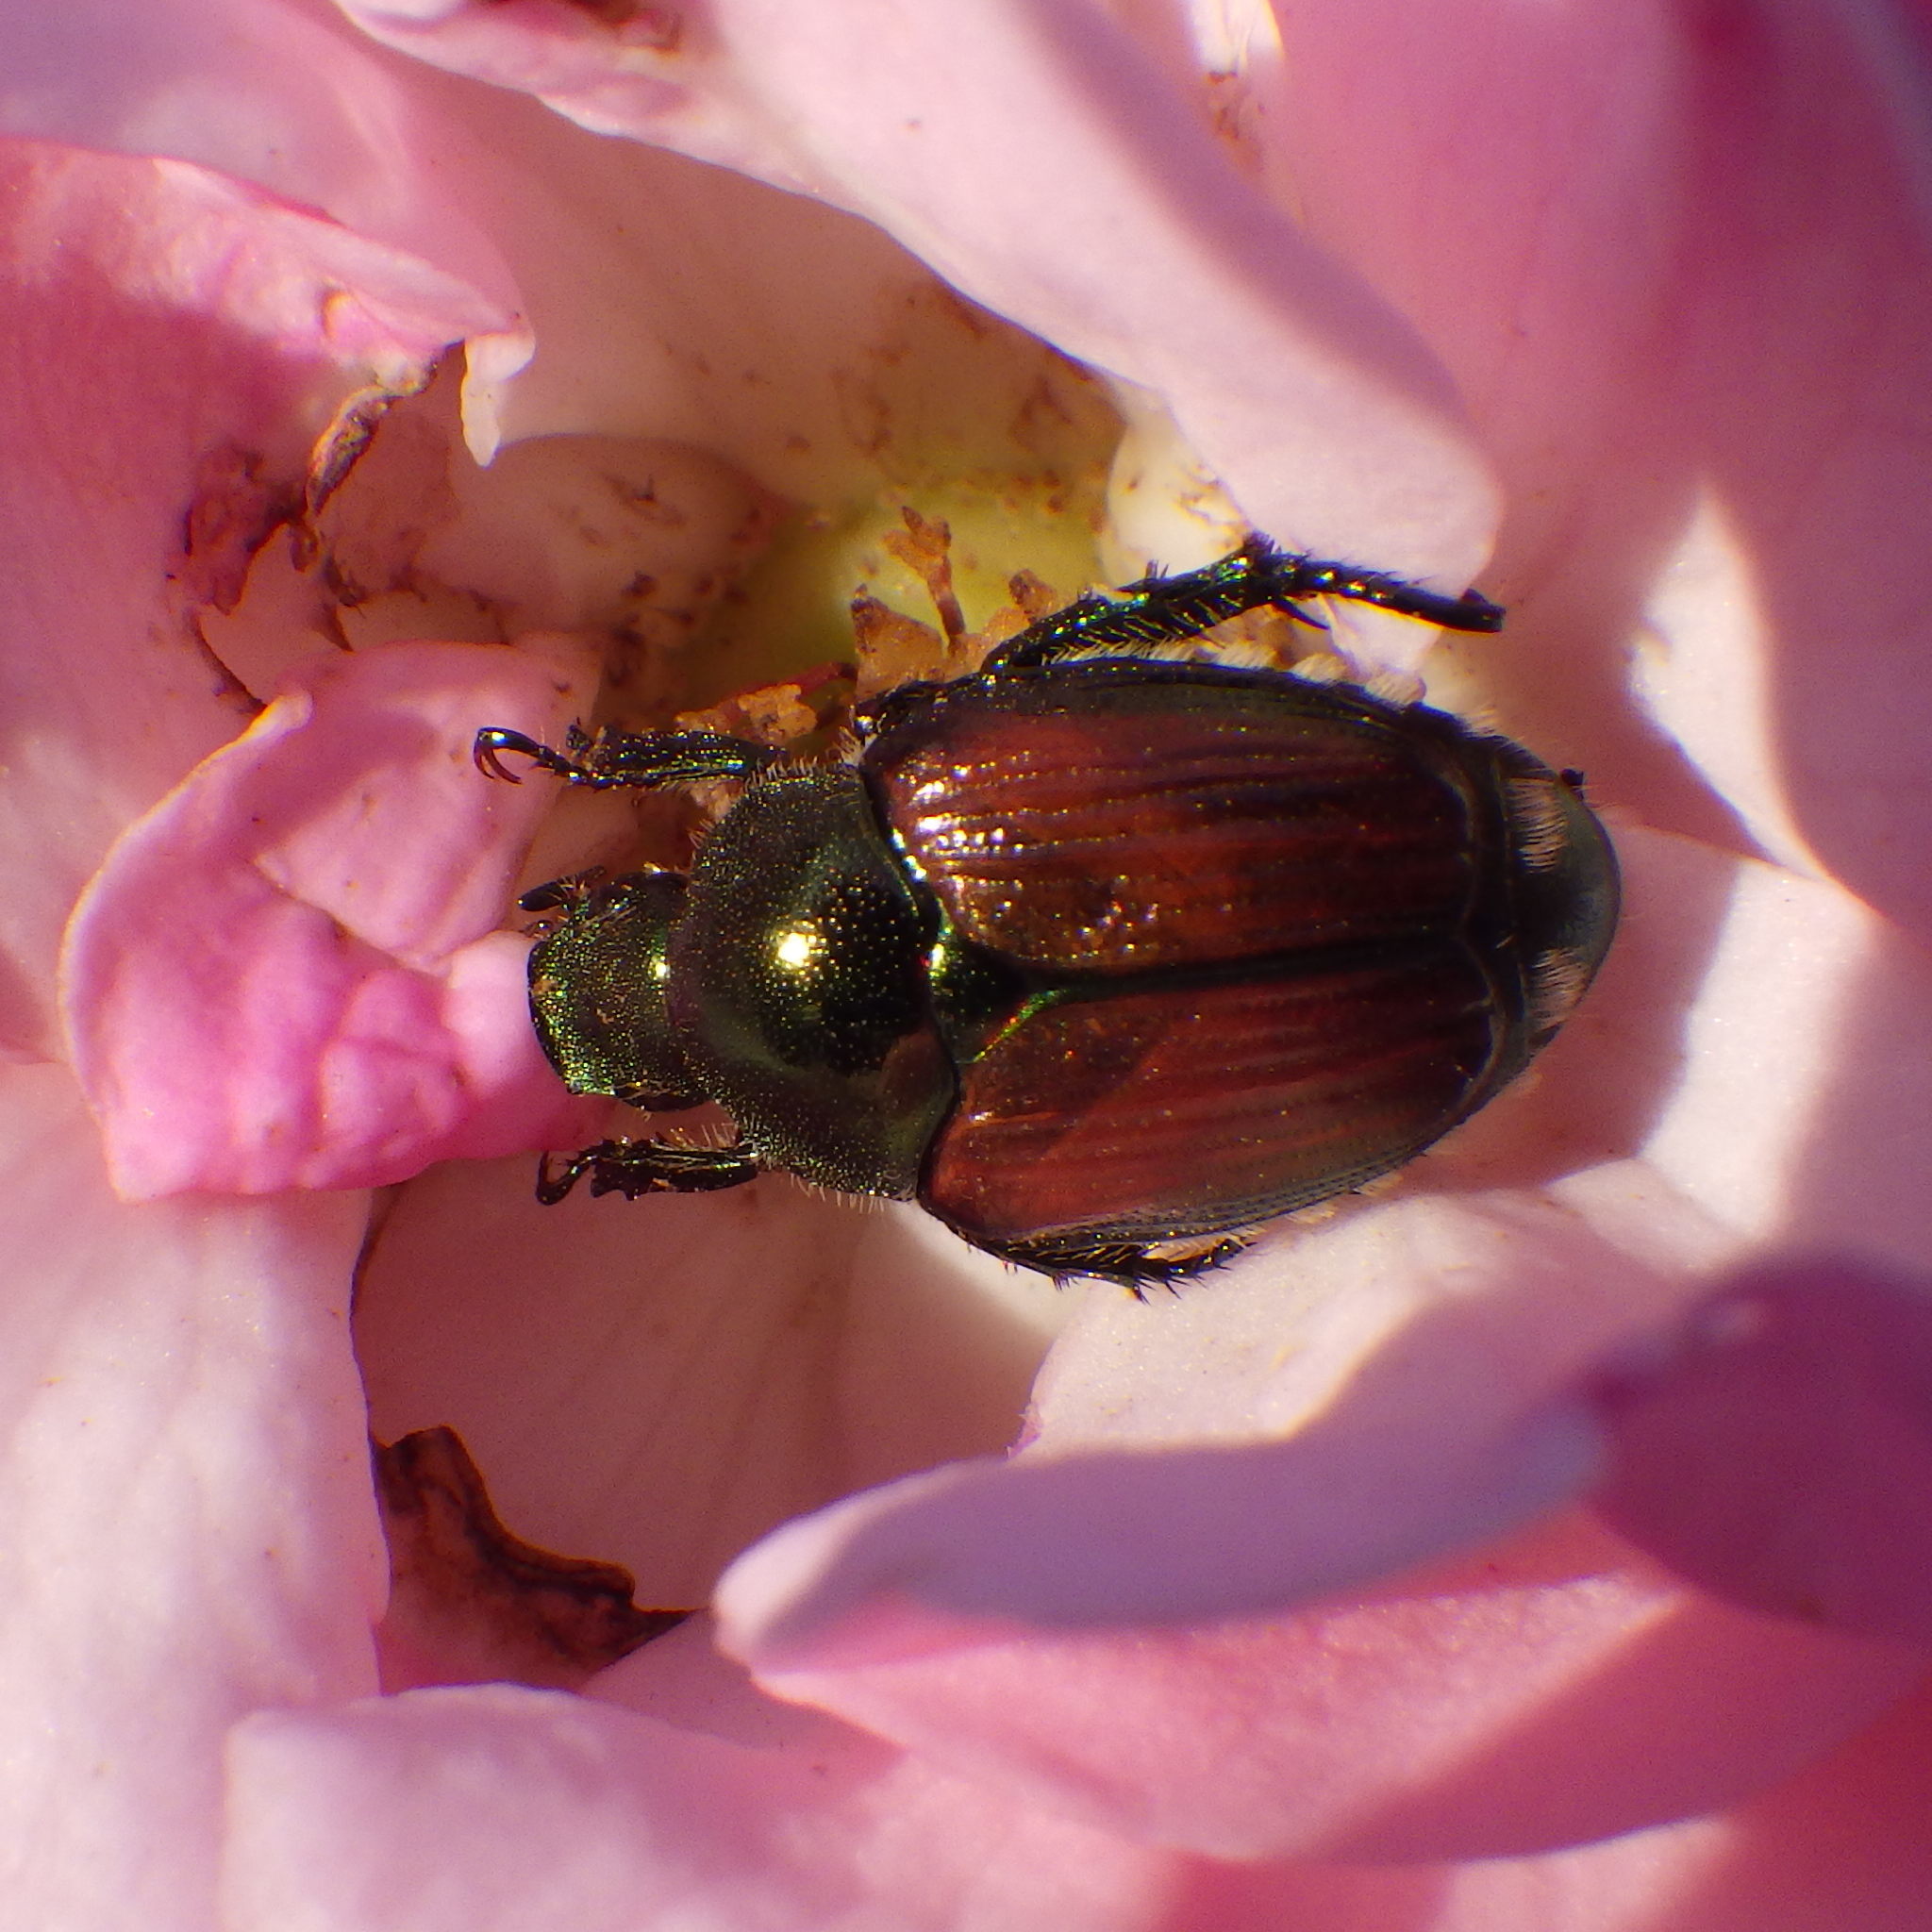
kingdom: Animalia
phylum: Arthropoda
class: Insecta
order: Coleoptera
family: Scarabaeidae
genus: Popillia
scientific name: Popillia japonica
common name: Japanese beetle
